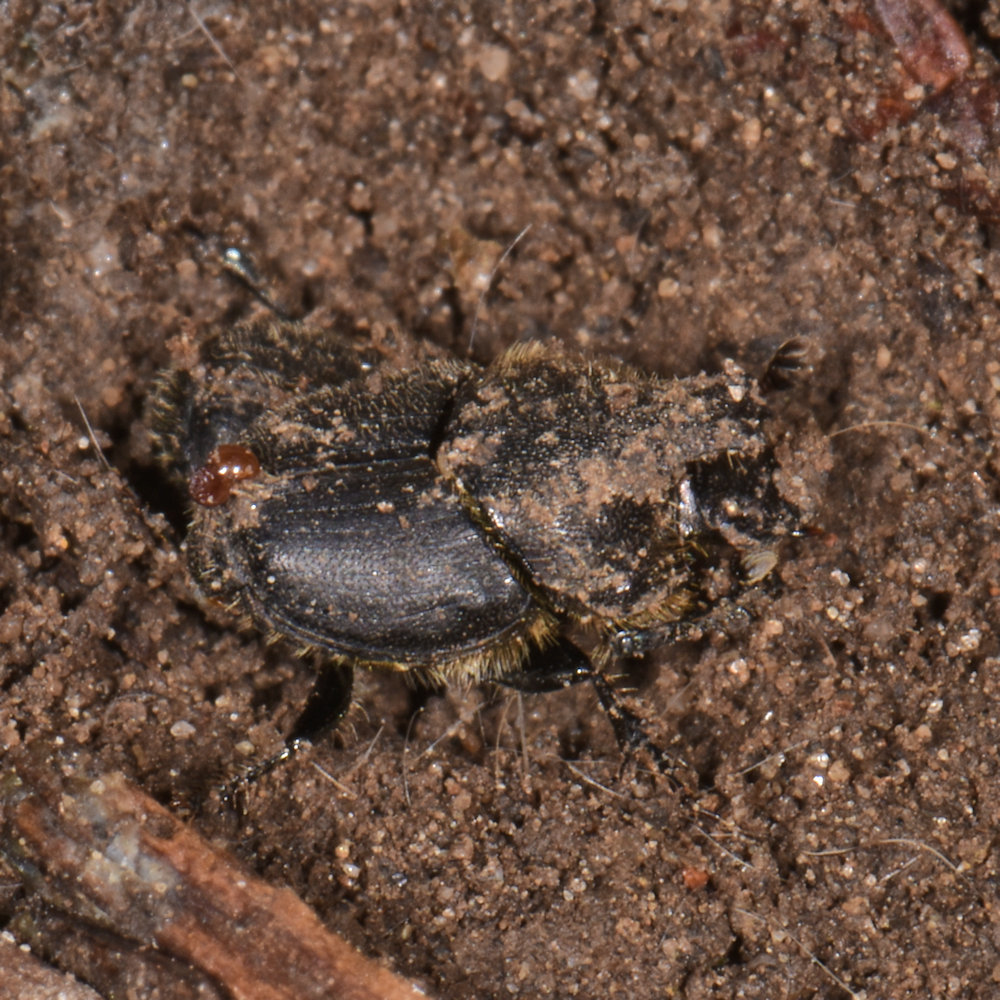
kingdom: Animalia
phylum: Arthropoda
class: Insecta
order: Coleoptera
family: Scarabaeidae
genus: Onthophagus
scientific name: Onthophagus hecate
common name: Scooped scarab
